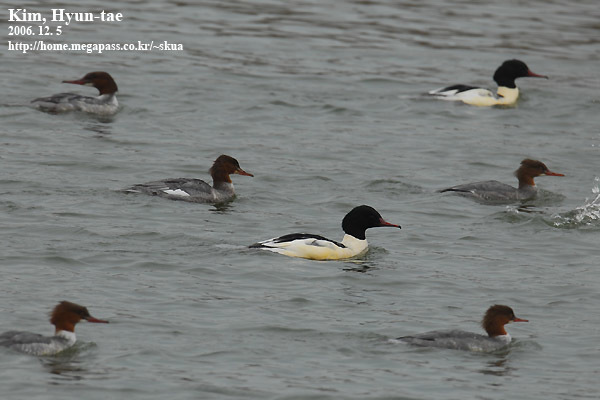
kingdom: Animalia
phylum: Chordata
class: Aves
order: Anseriformes
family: Anatidae
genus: Mergus
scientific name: Mergus merganser
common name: Common merganser
